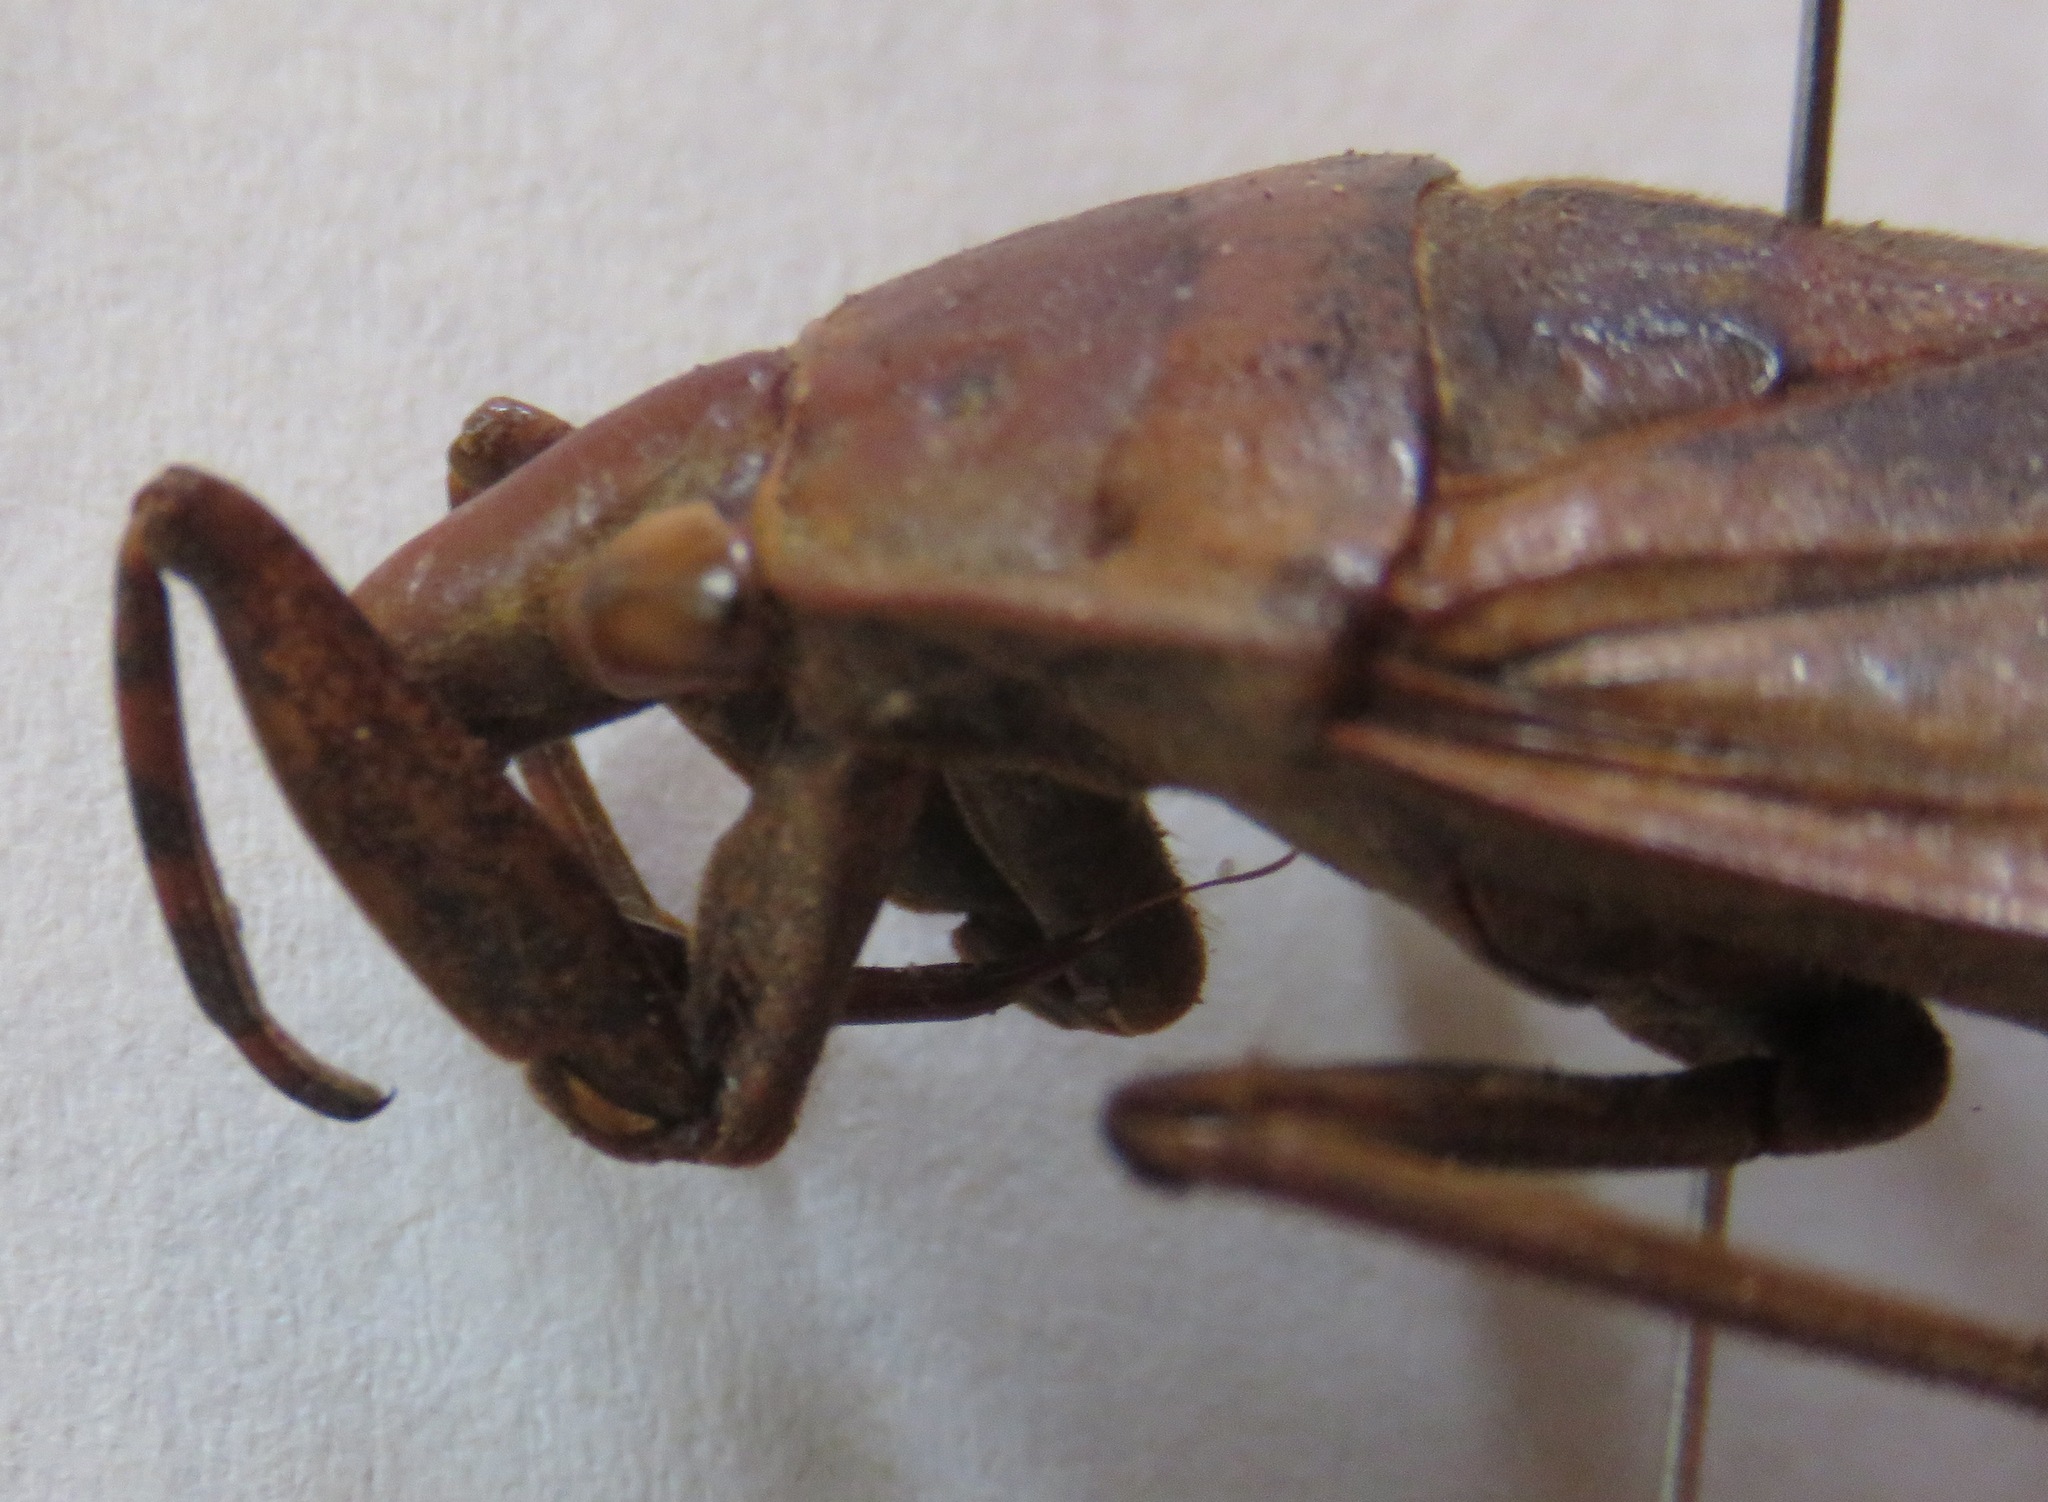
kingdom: Animalia
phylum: Arthropoda
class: Insecta
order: Hemiptera
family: Belostomatidae
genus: Belostoma
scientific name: Belostoma dilatatum
